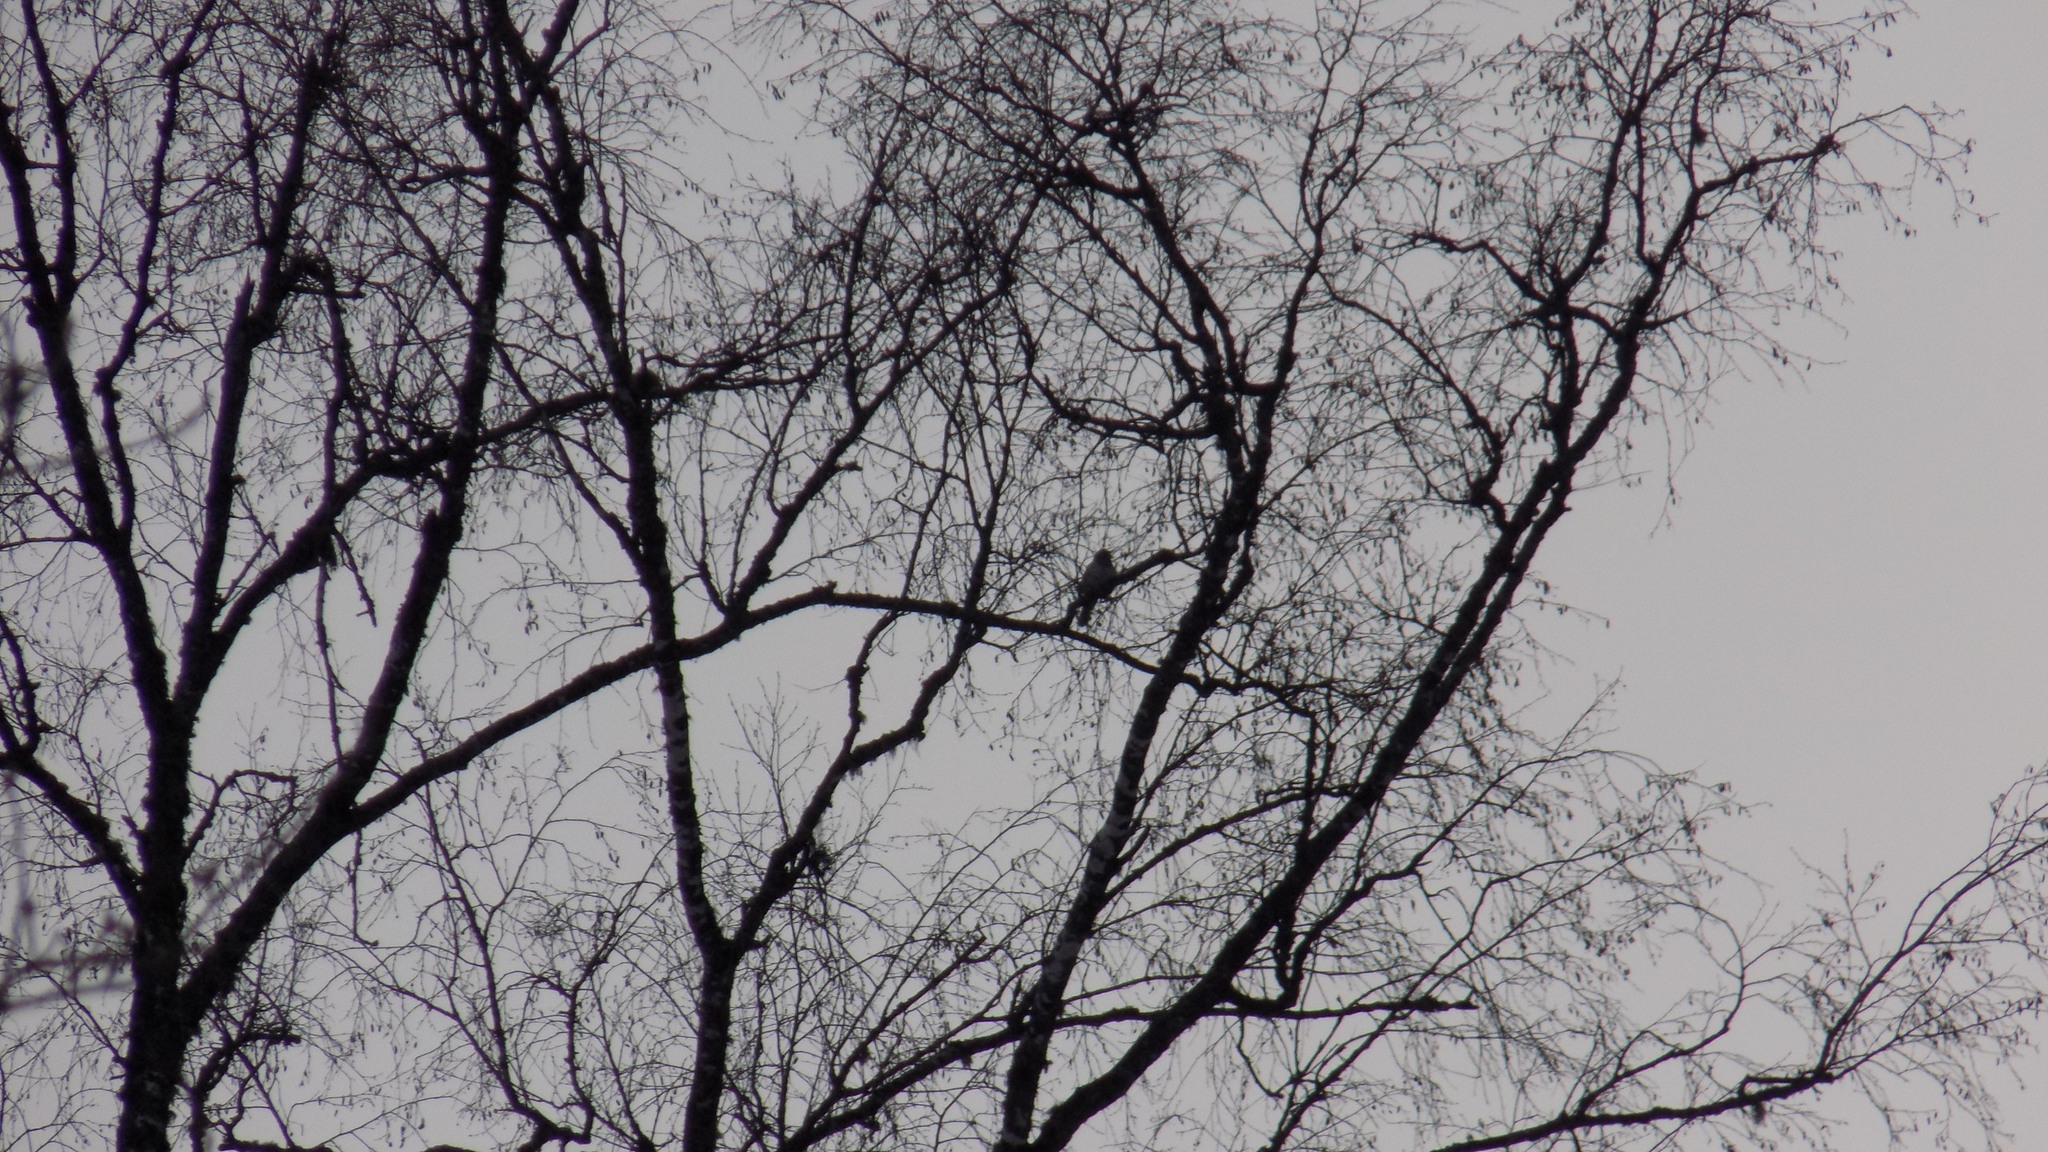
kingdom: Animalia
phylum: Chordata
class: Aves
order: Passeriformes
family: Turdidae
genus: Turdus
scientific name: Turdus atrogularis
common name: Black-throated thrush
